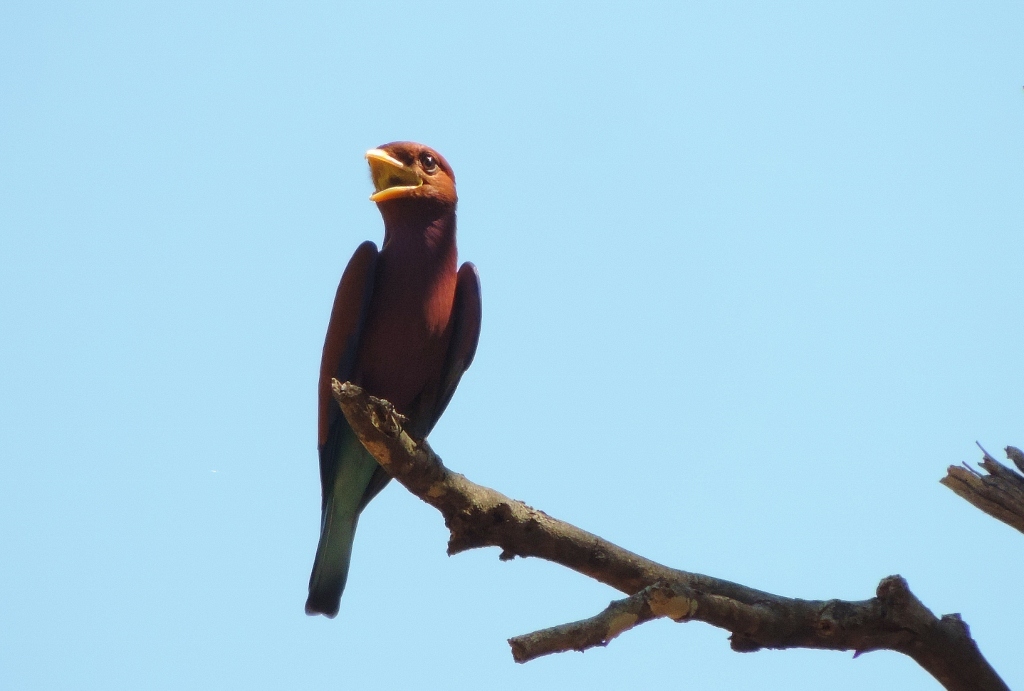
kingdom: Animalia
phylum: Chordata
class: Aves
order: Coraciiformes
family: Coraciidae
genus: Eurystomus
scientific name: Eurystomus glaucurus
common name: Broad-billed roller
